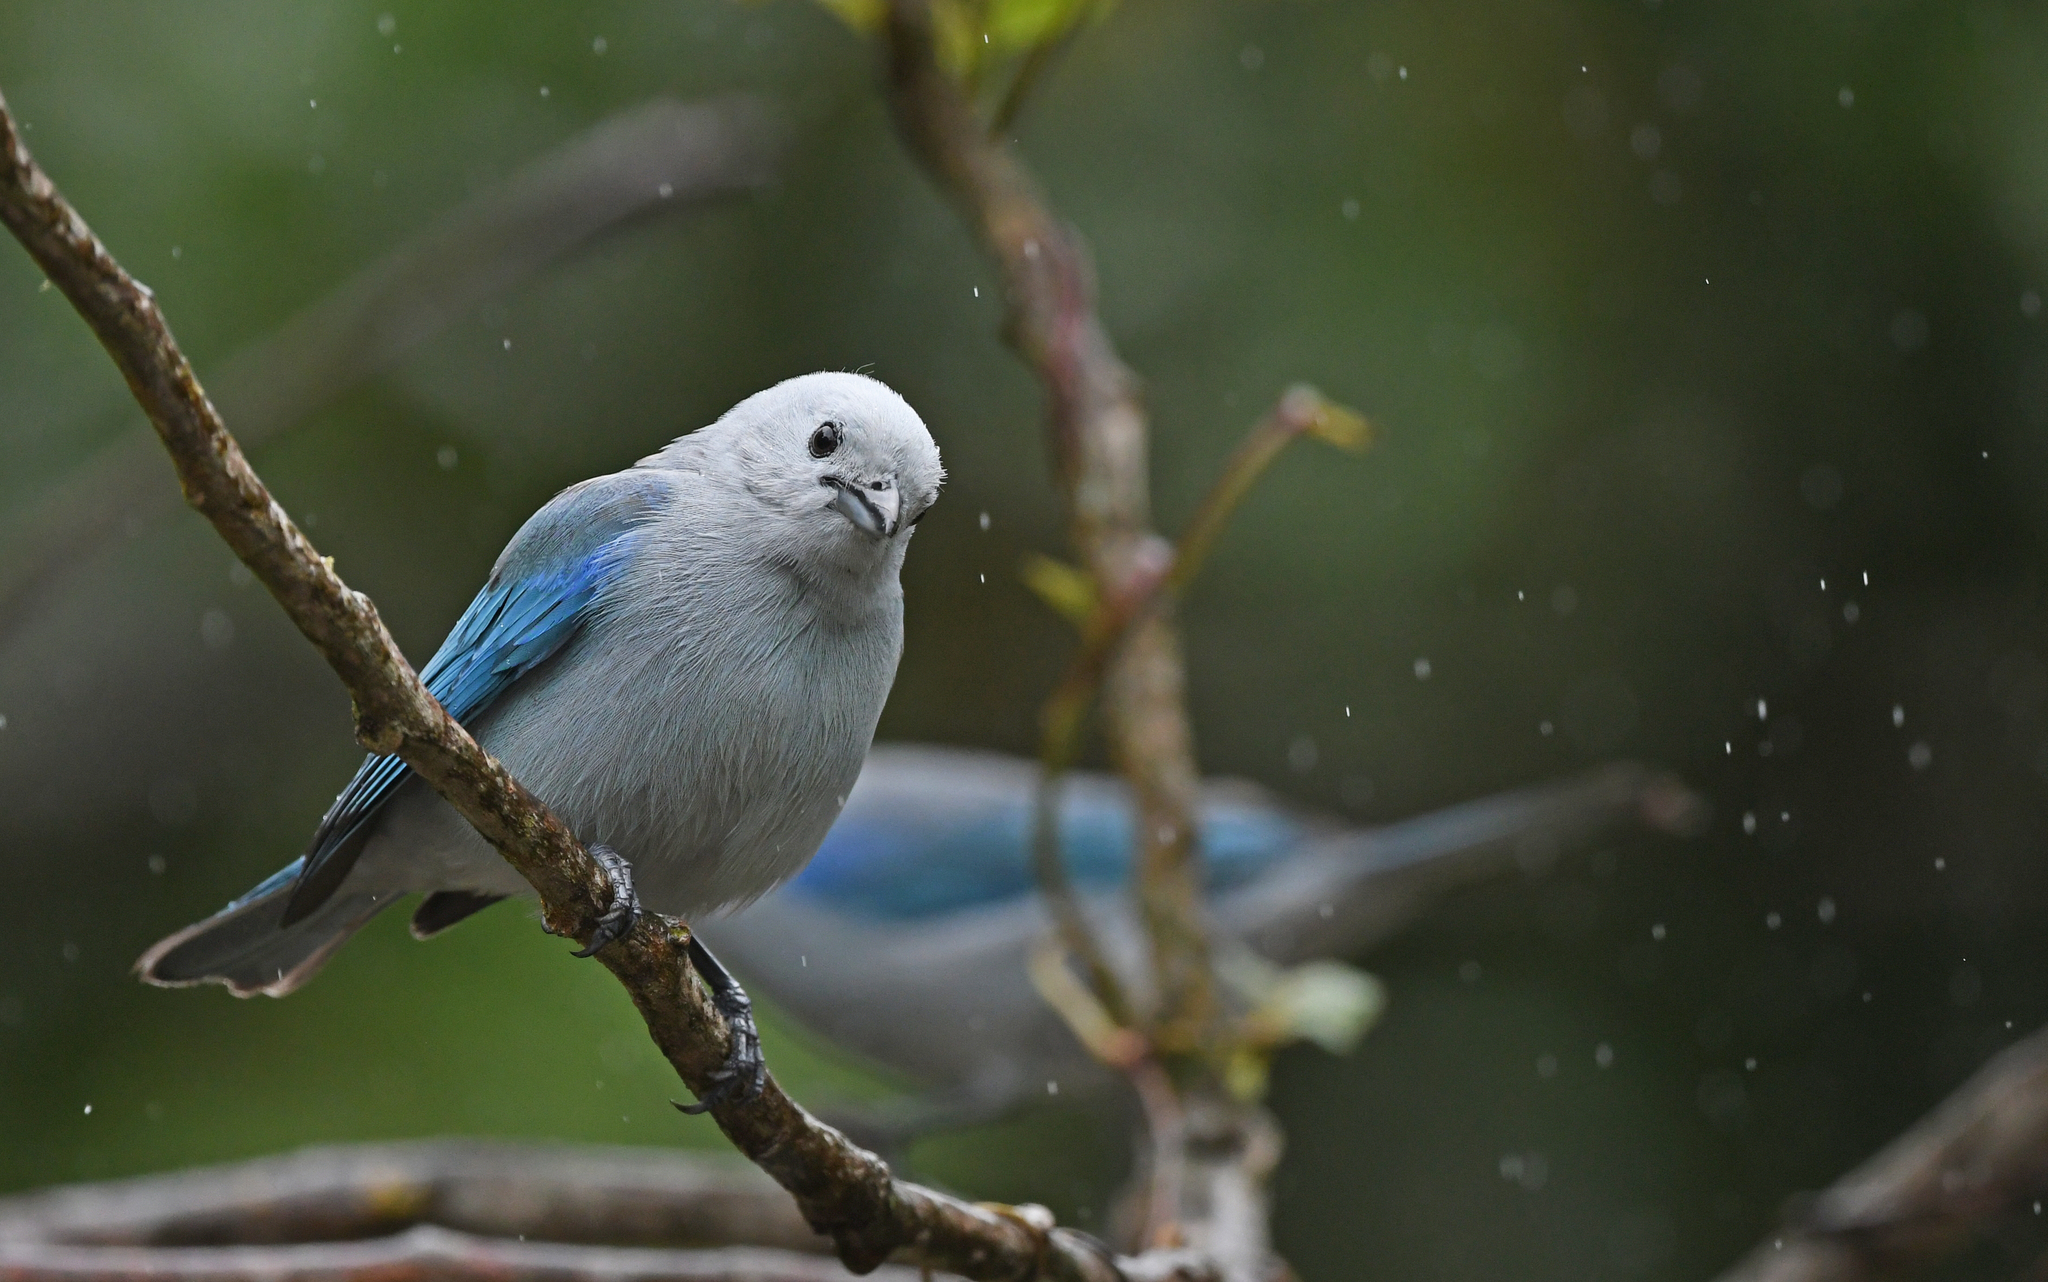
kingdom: Animalia
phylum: Chordata
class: Aves
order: Passeriformes
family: Thraupidae
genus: Thraupis
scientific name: Thraupis episcopus
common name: Blue-grey tanager
